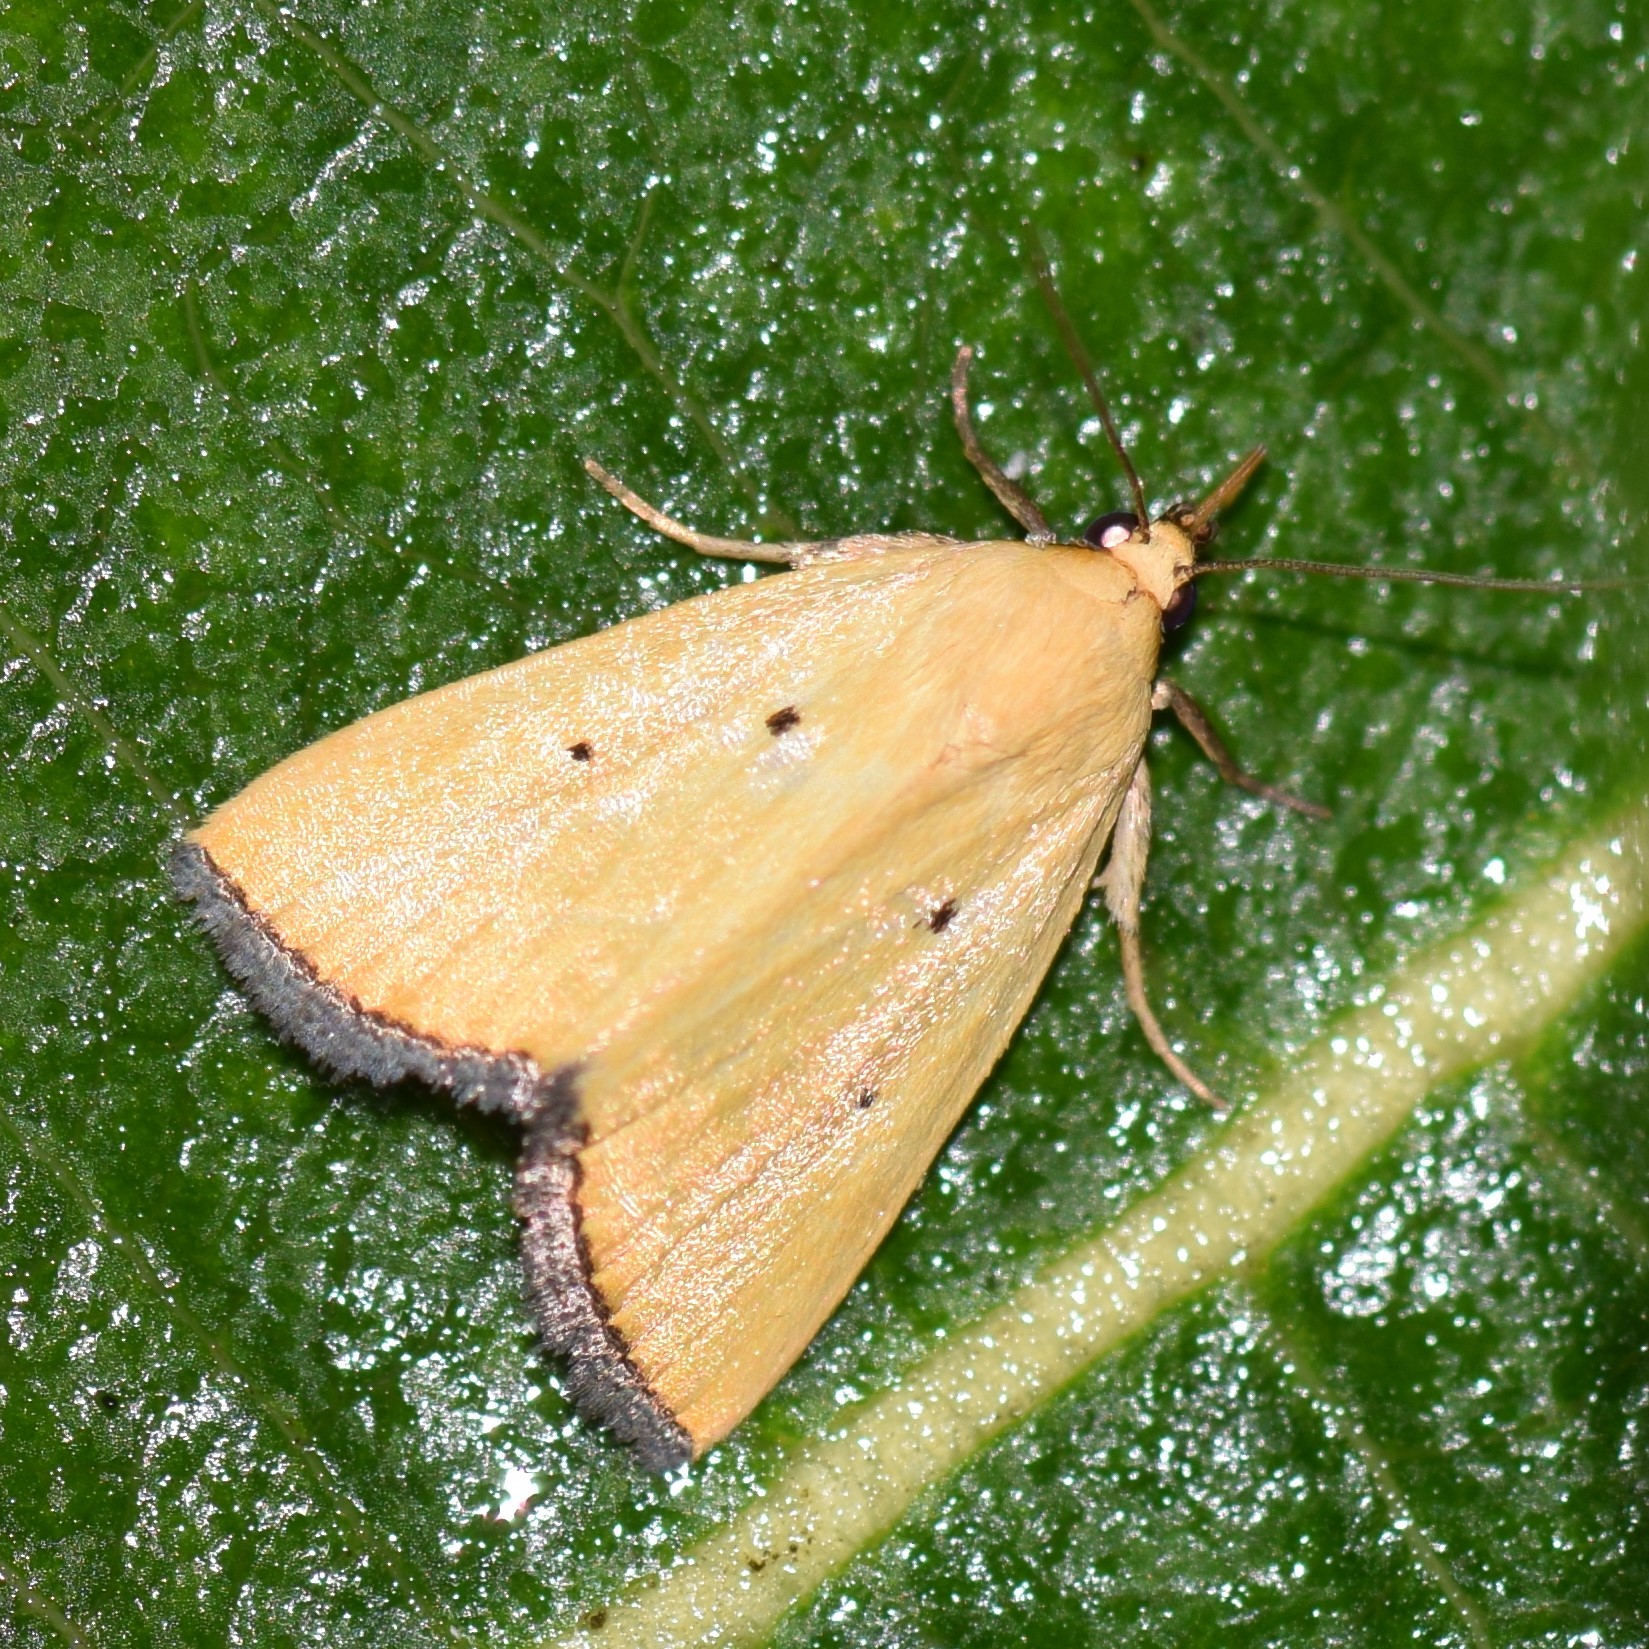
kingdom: Animalia
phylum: Arthropoda
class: Insecta
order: Lepidoptera
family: Noctuidae
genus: Marimatha
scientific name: Marimatha nigrofimbria
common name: Black-bordered lemon moth
